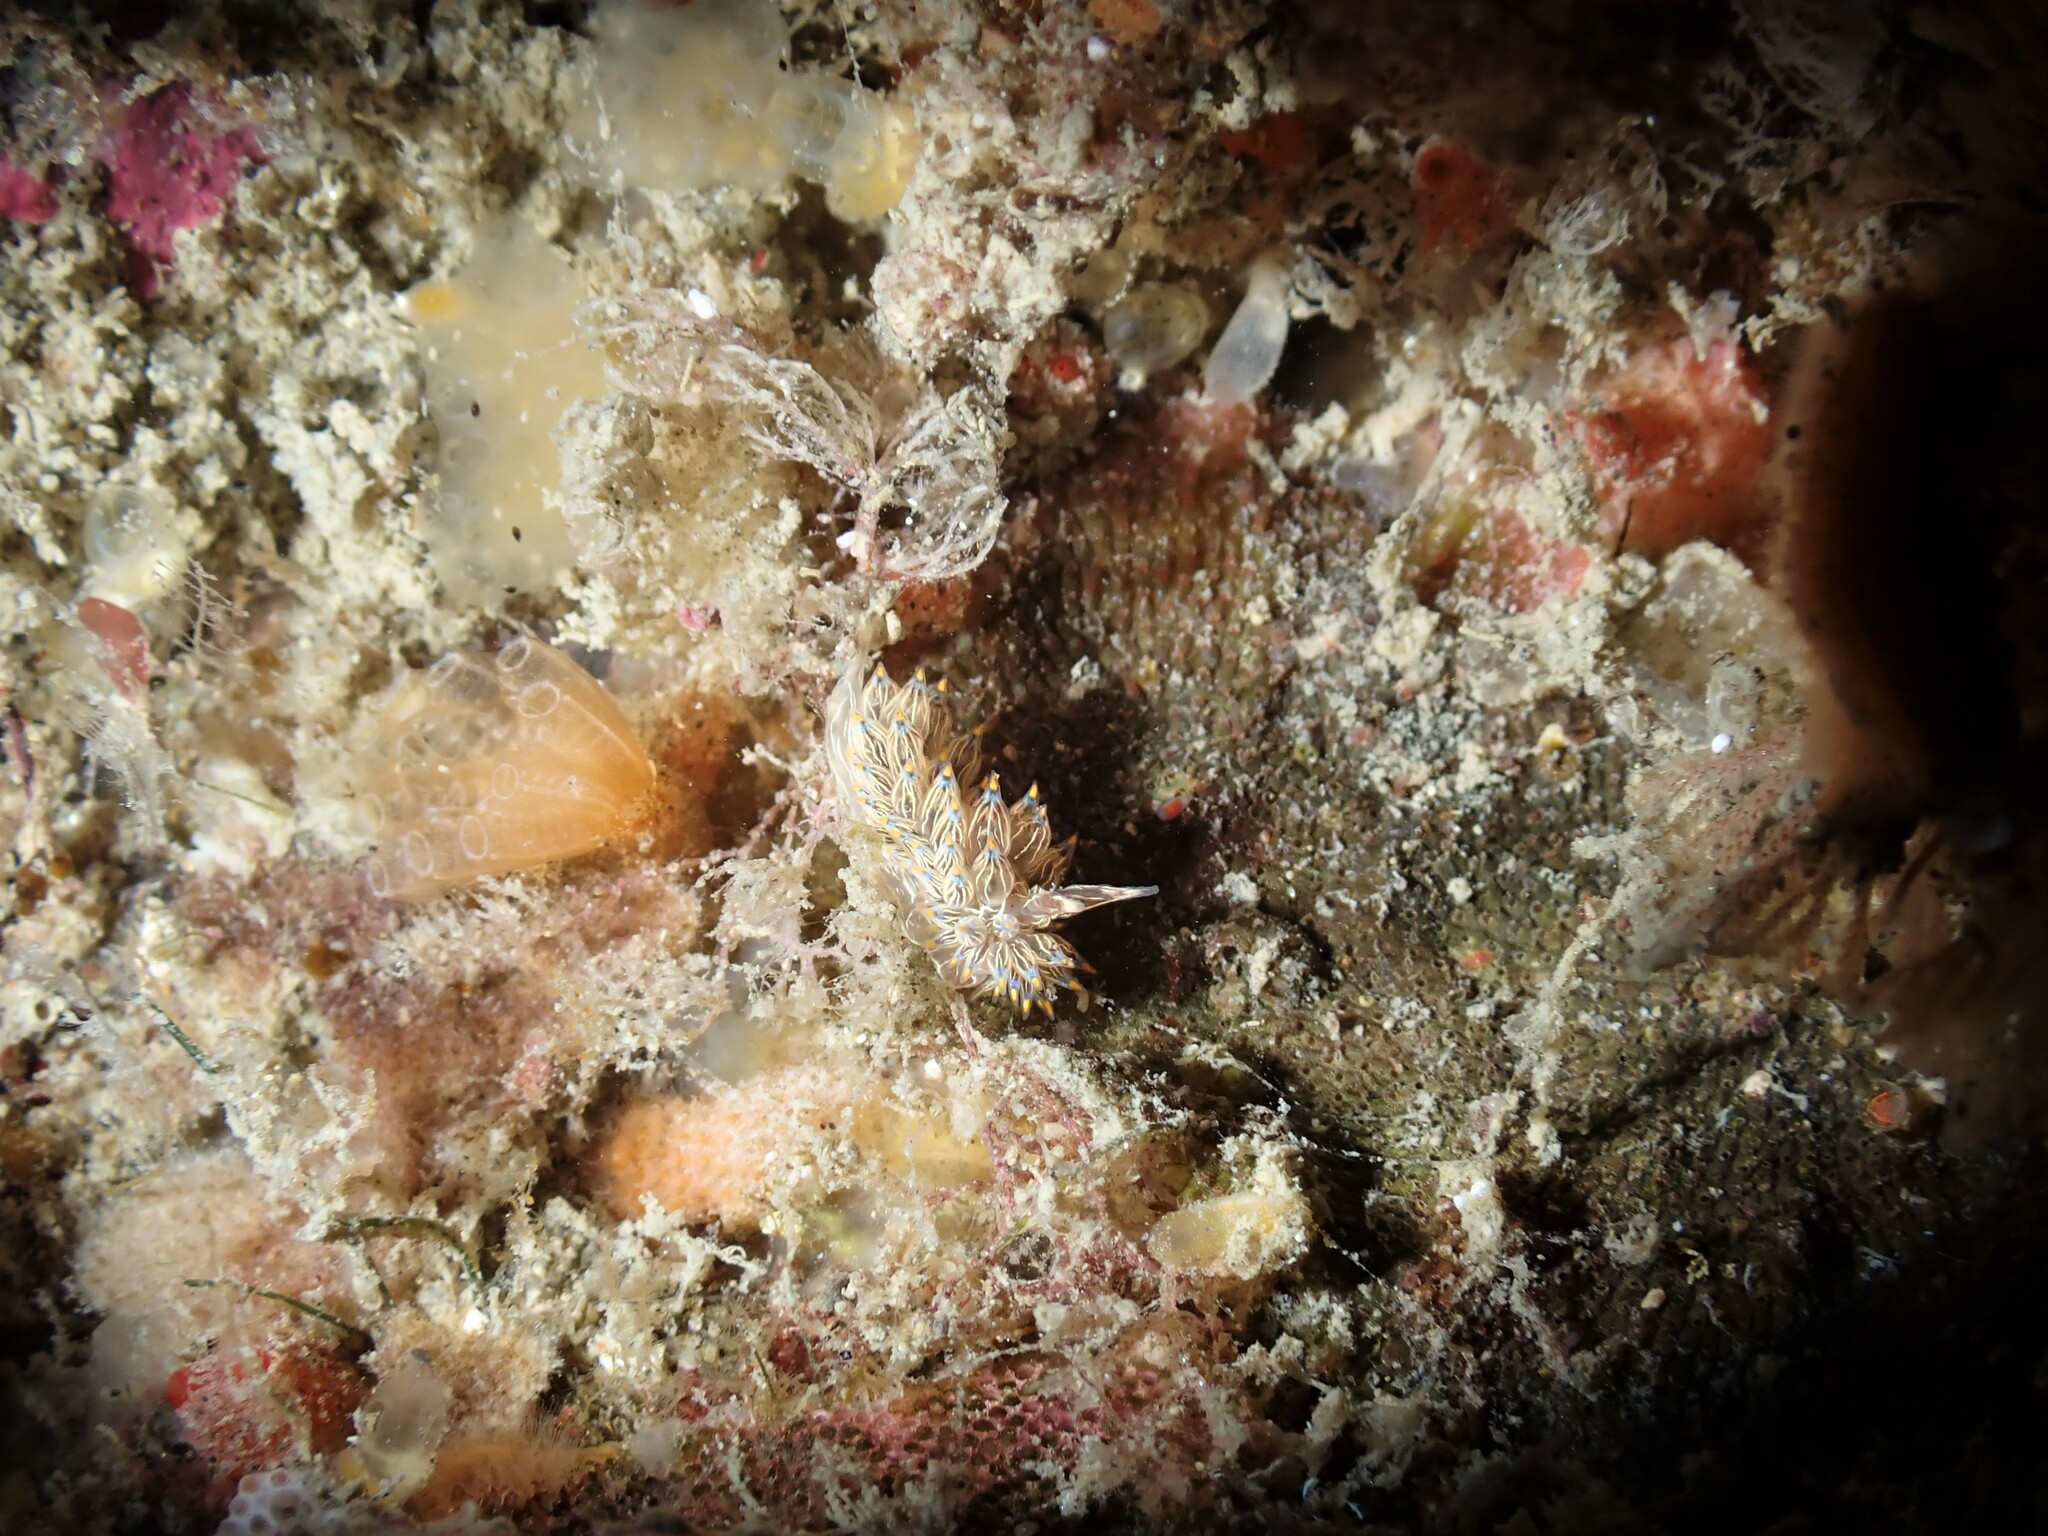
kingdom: Animalia
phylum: Mollusca
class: Gastropoda
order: Nudibranchia
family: Janolidae
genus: Janolus
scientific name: Janolus eximius
